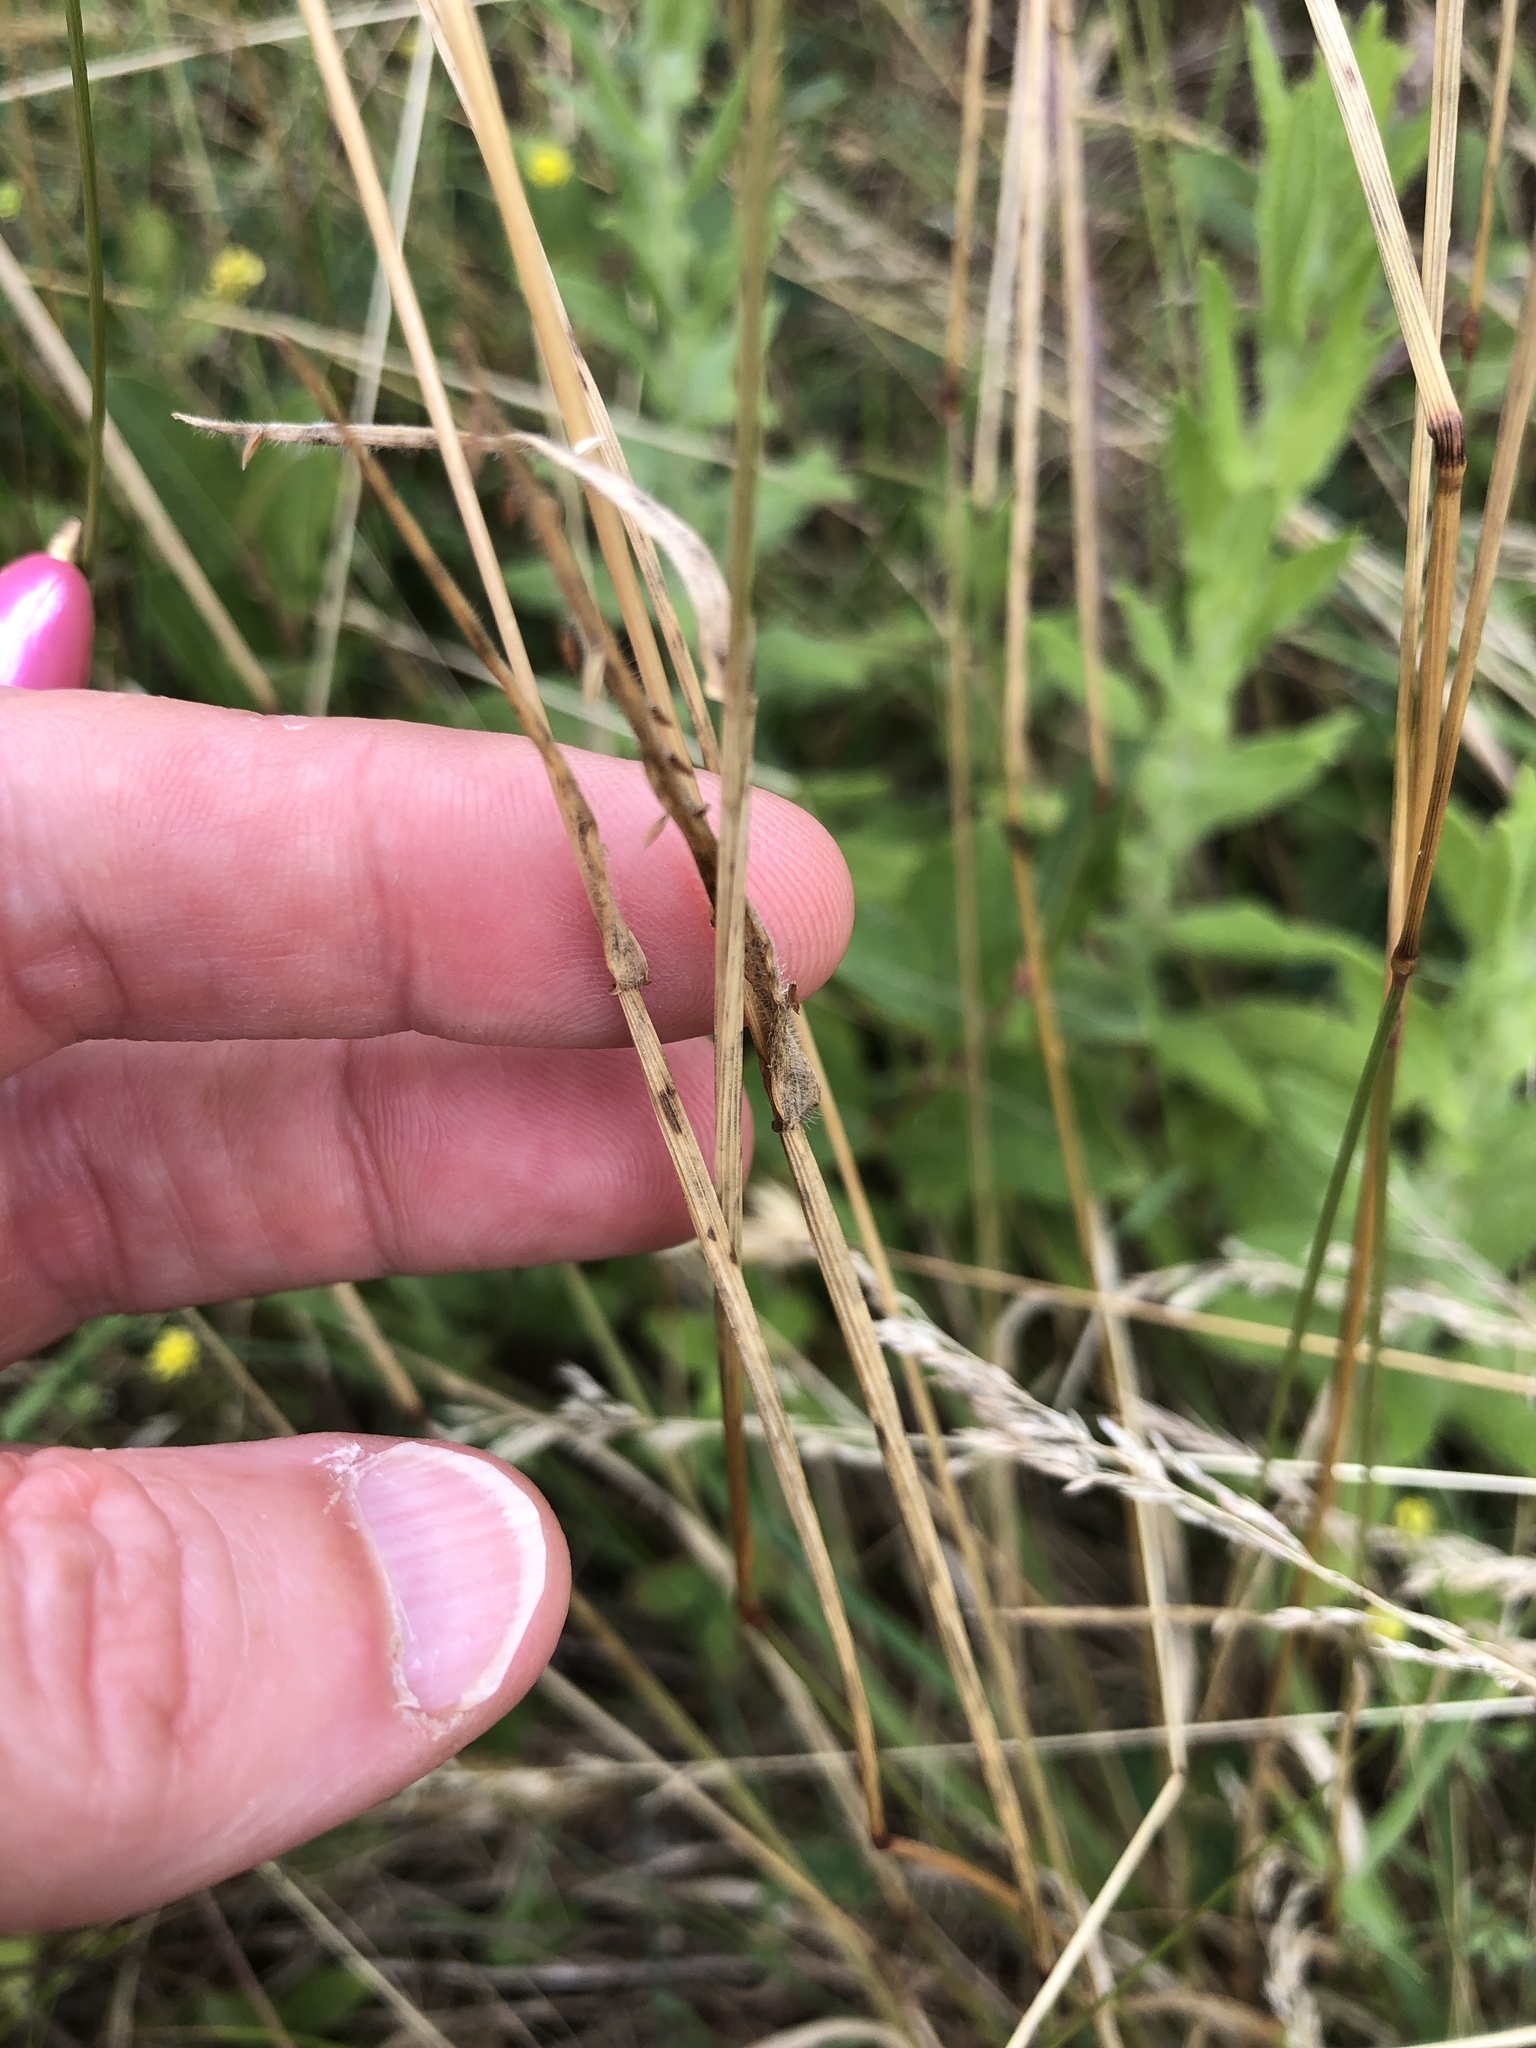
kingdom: Plantae
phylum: Tracheophyta
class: Liliopsida
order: Poales
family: Poaceae
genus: Anthoxanthum
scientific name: Anthoxanthum odoratum
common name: Sweet vernalgrass
